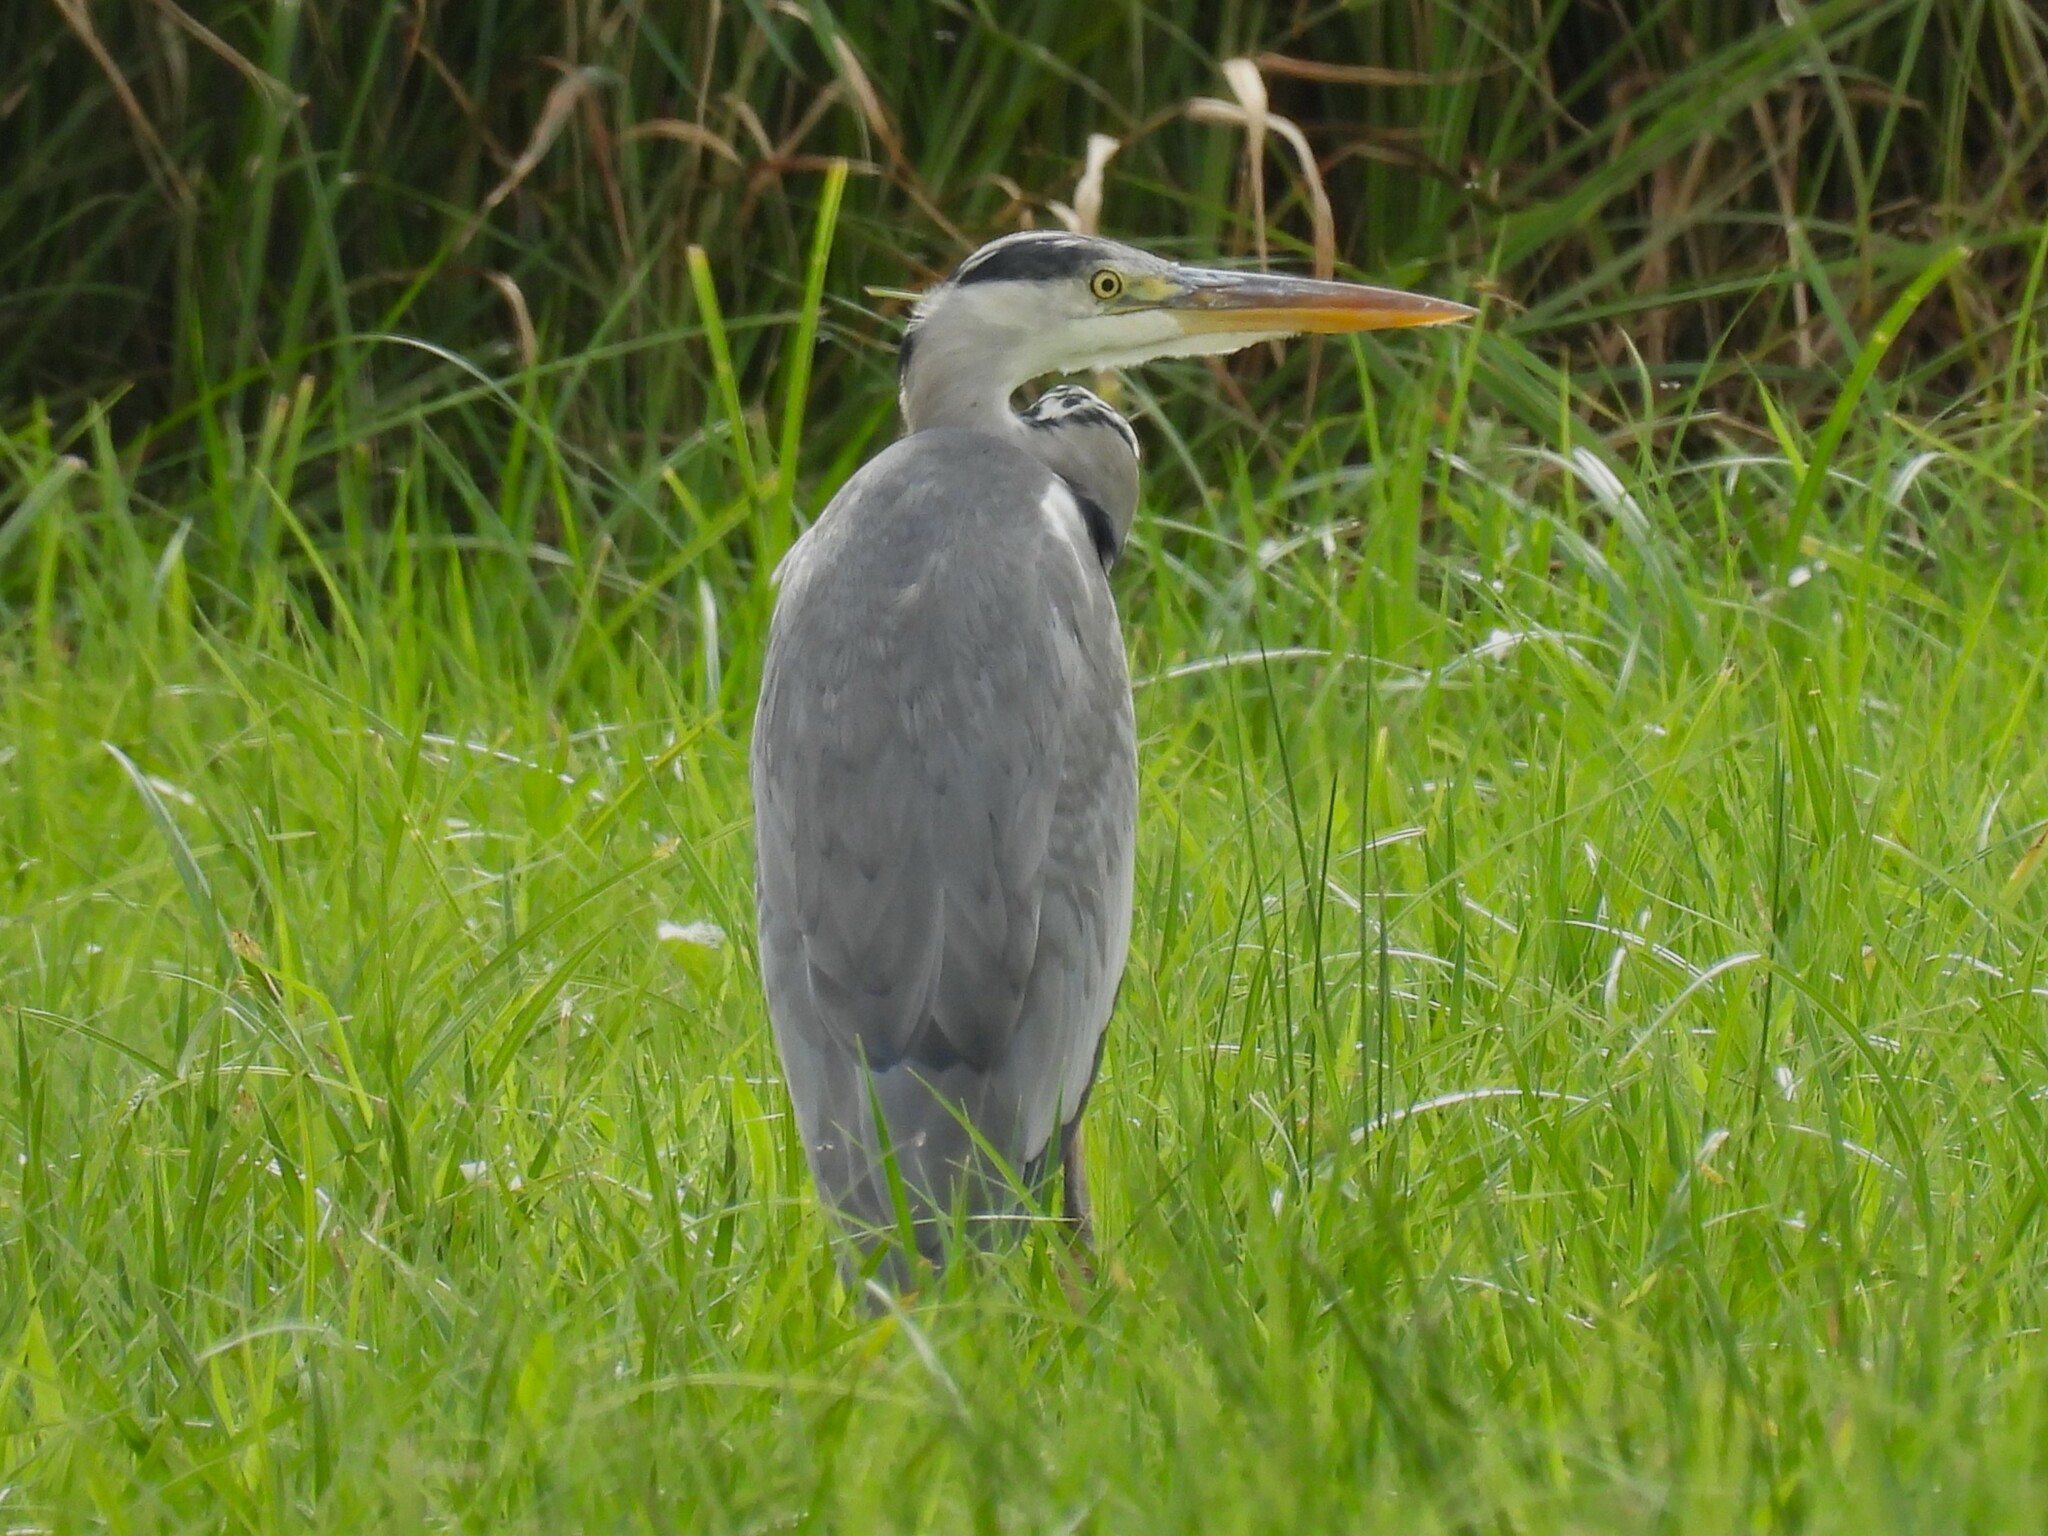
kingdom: Animalia
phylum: Chordata
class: Aves
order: Pelecaniformes
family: Ardeidae
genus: Ardea
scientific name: Ardea cinerea
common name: Grey heron
